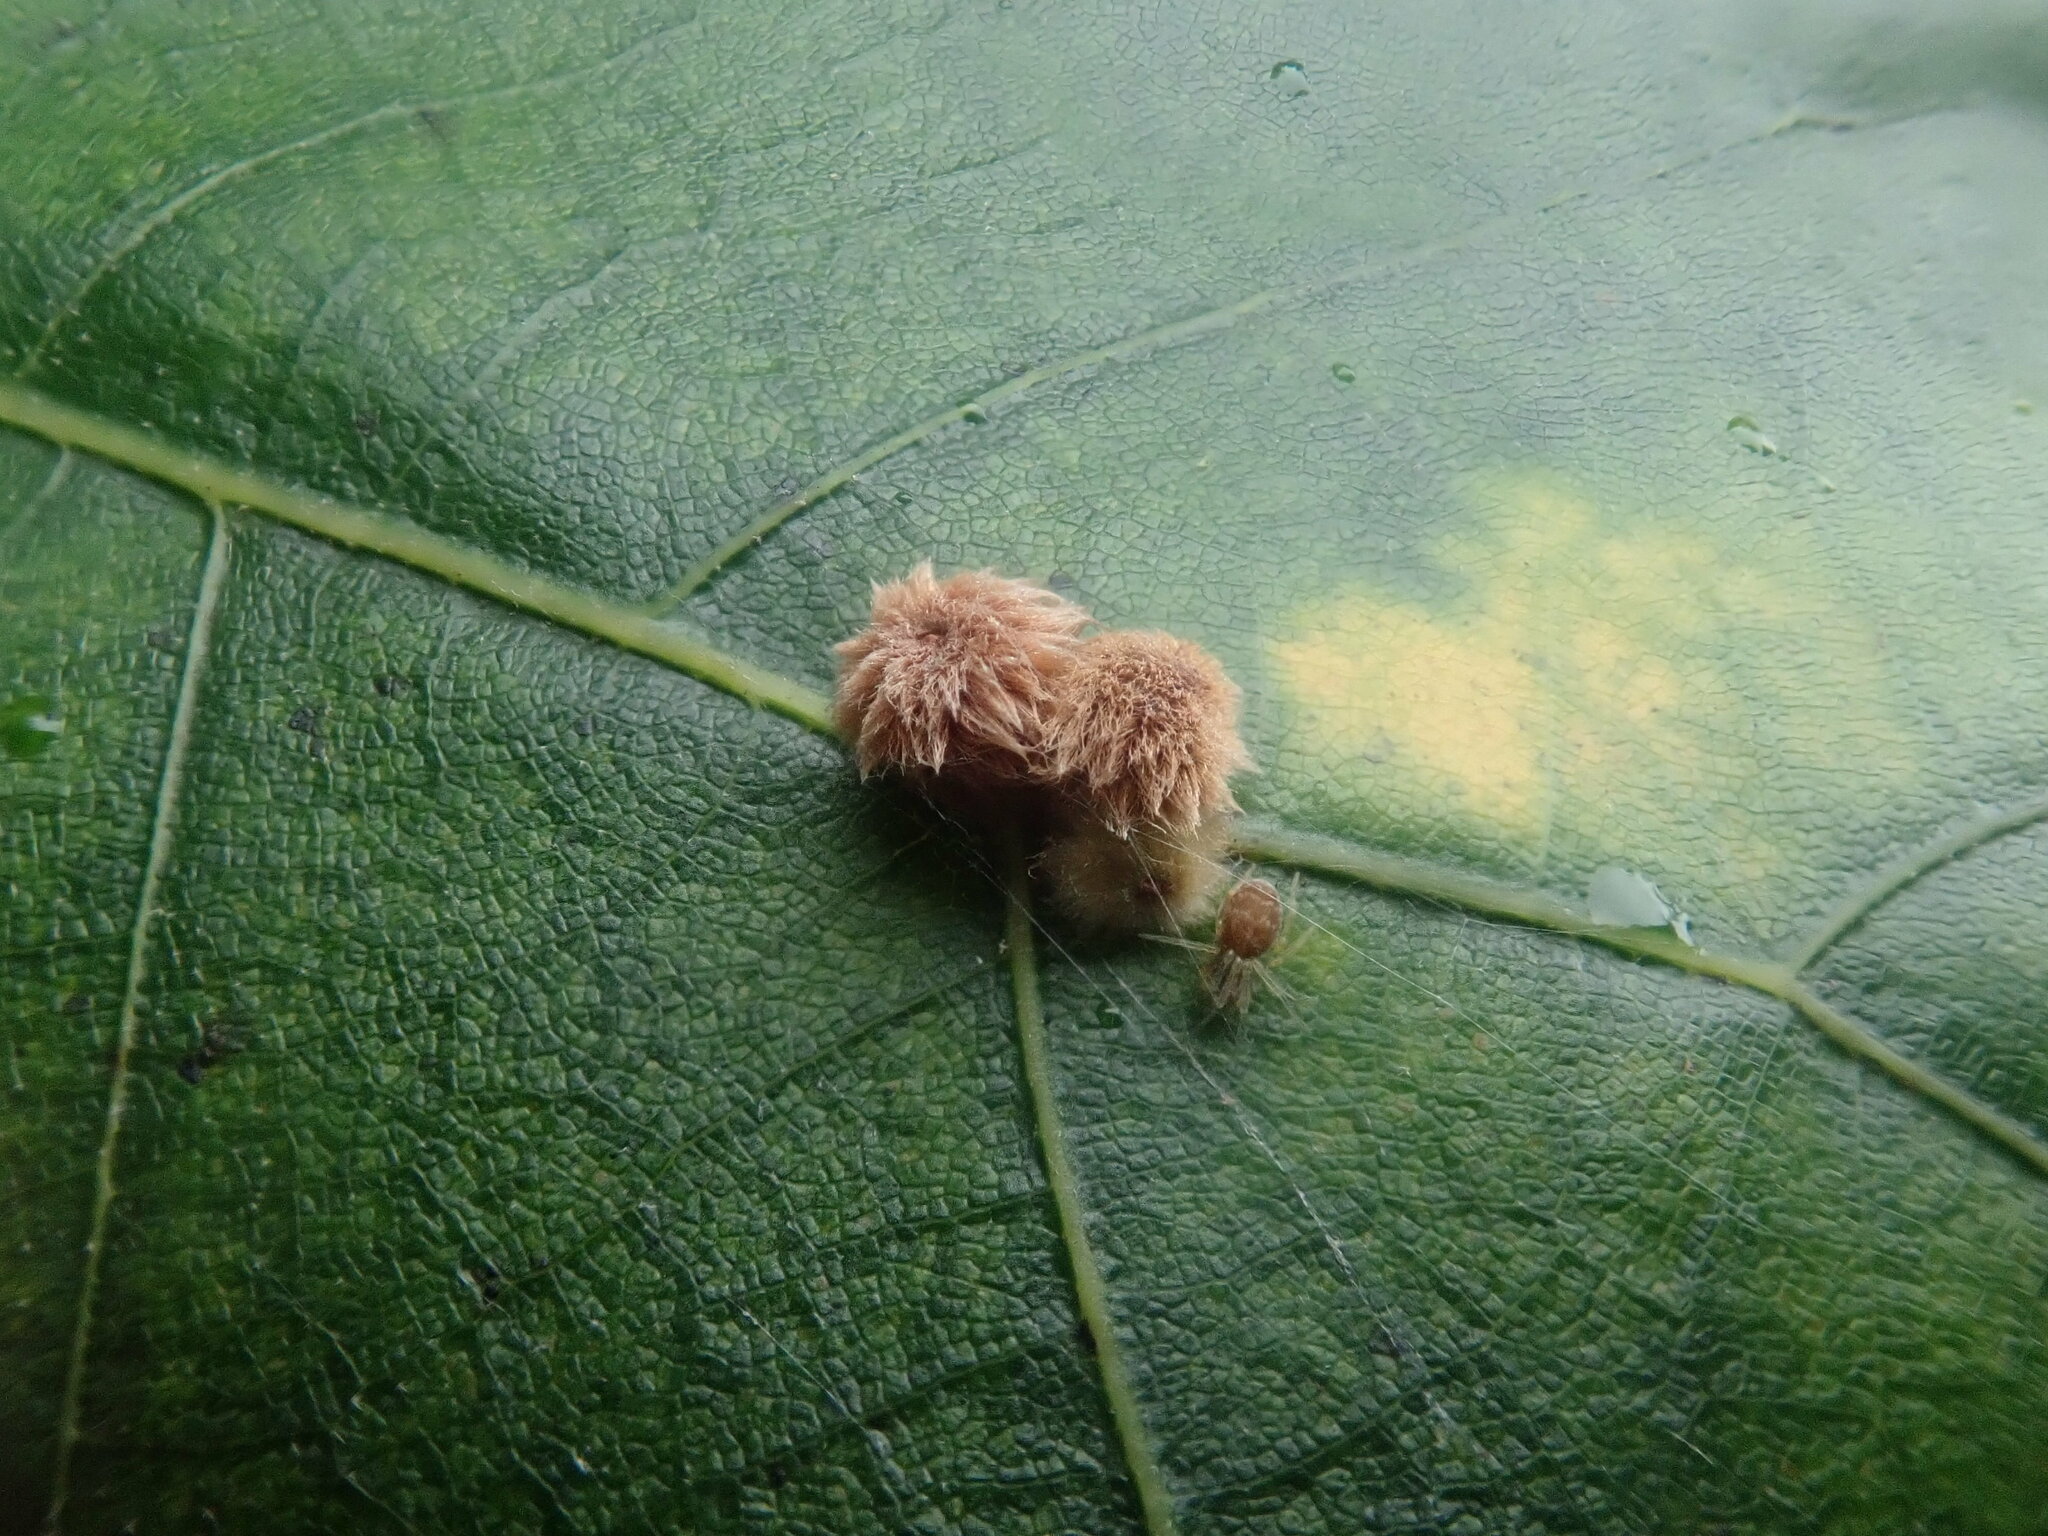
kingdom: Animalia
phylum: Arthropoda
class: Insecta
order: Hymenoptera
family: Cynipidae
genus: Callirhytis
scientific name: Callirhytis
